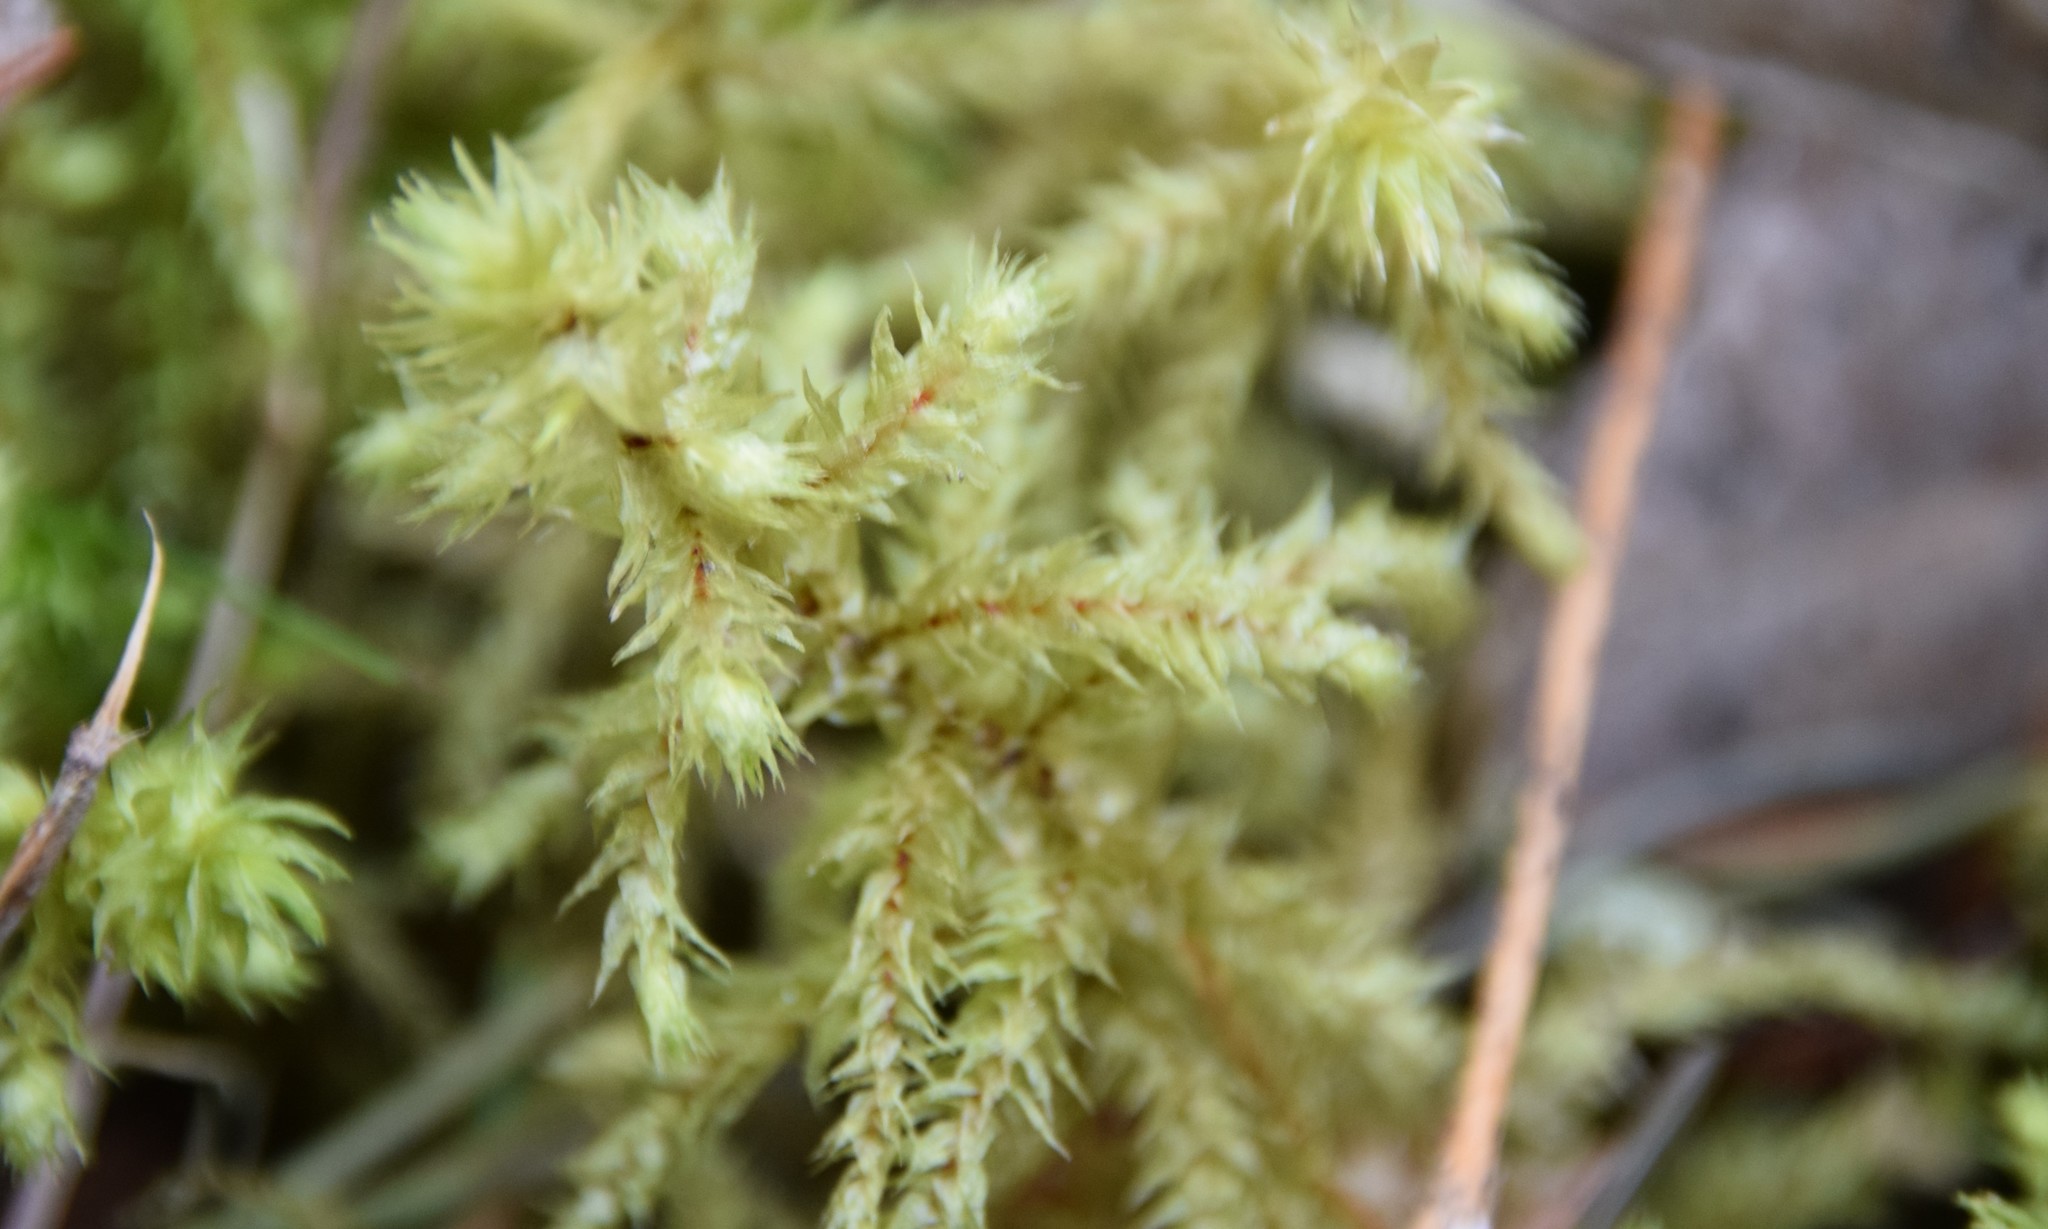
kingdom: Plantae
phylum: Bryophyta
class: Bryopsida
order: Hypnales
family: Hylocomiaceae
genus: Hylocomiadelphus
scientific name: Hylocomiadelphus triquetrus
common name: Rough goose neck moss
